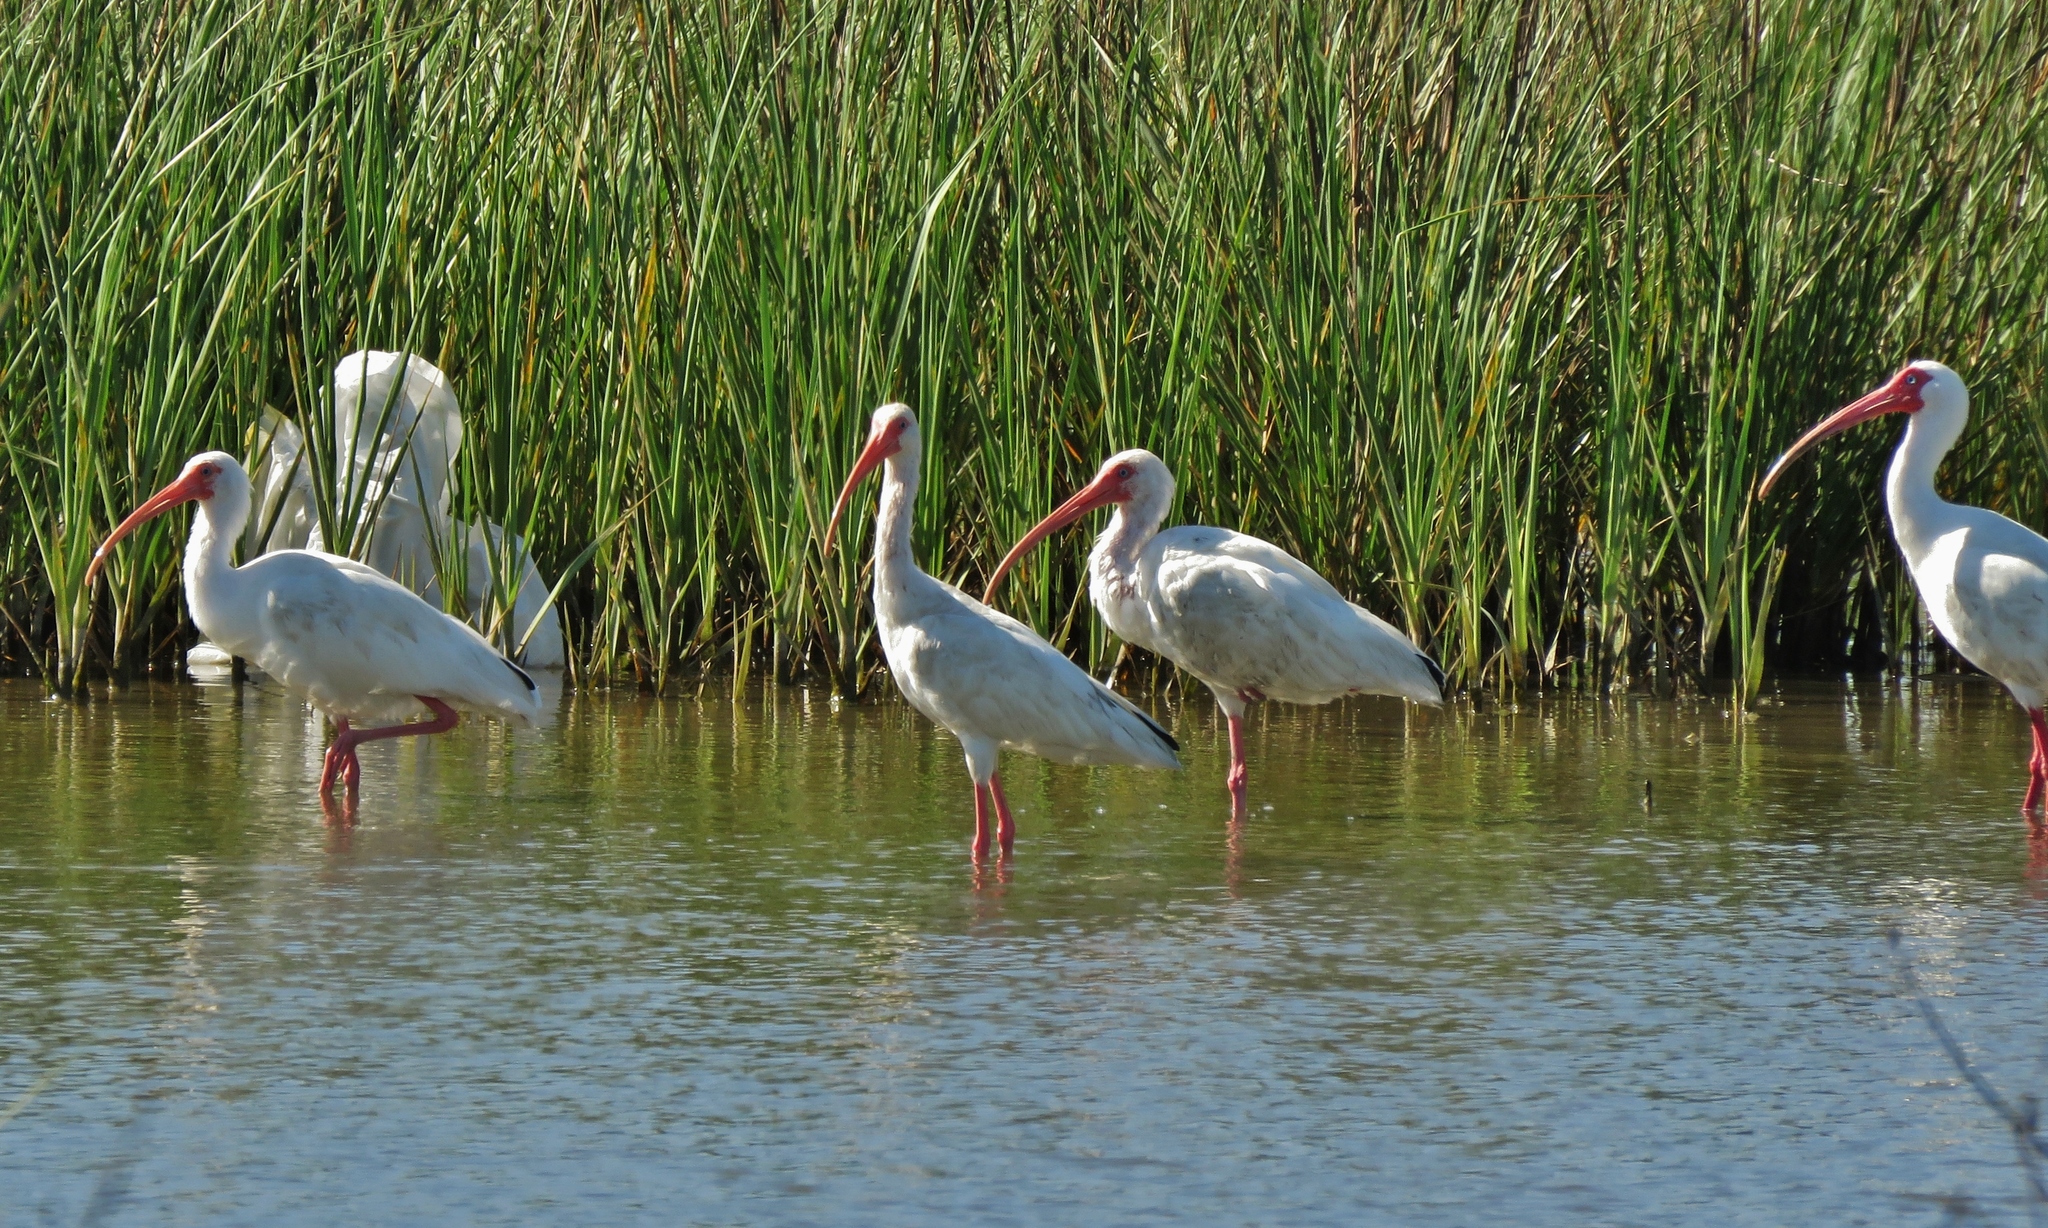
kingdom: Animalia
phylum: Chordata
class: Aves
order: Pelecaniformes
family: Threskiornithidae
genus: Eudocimus
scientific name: Eudocimus albus
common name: White ibis
